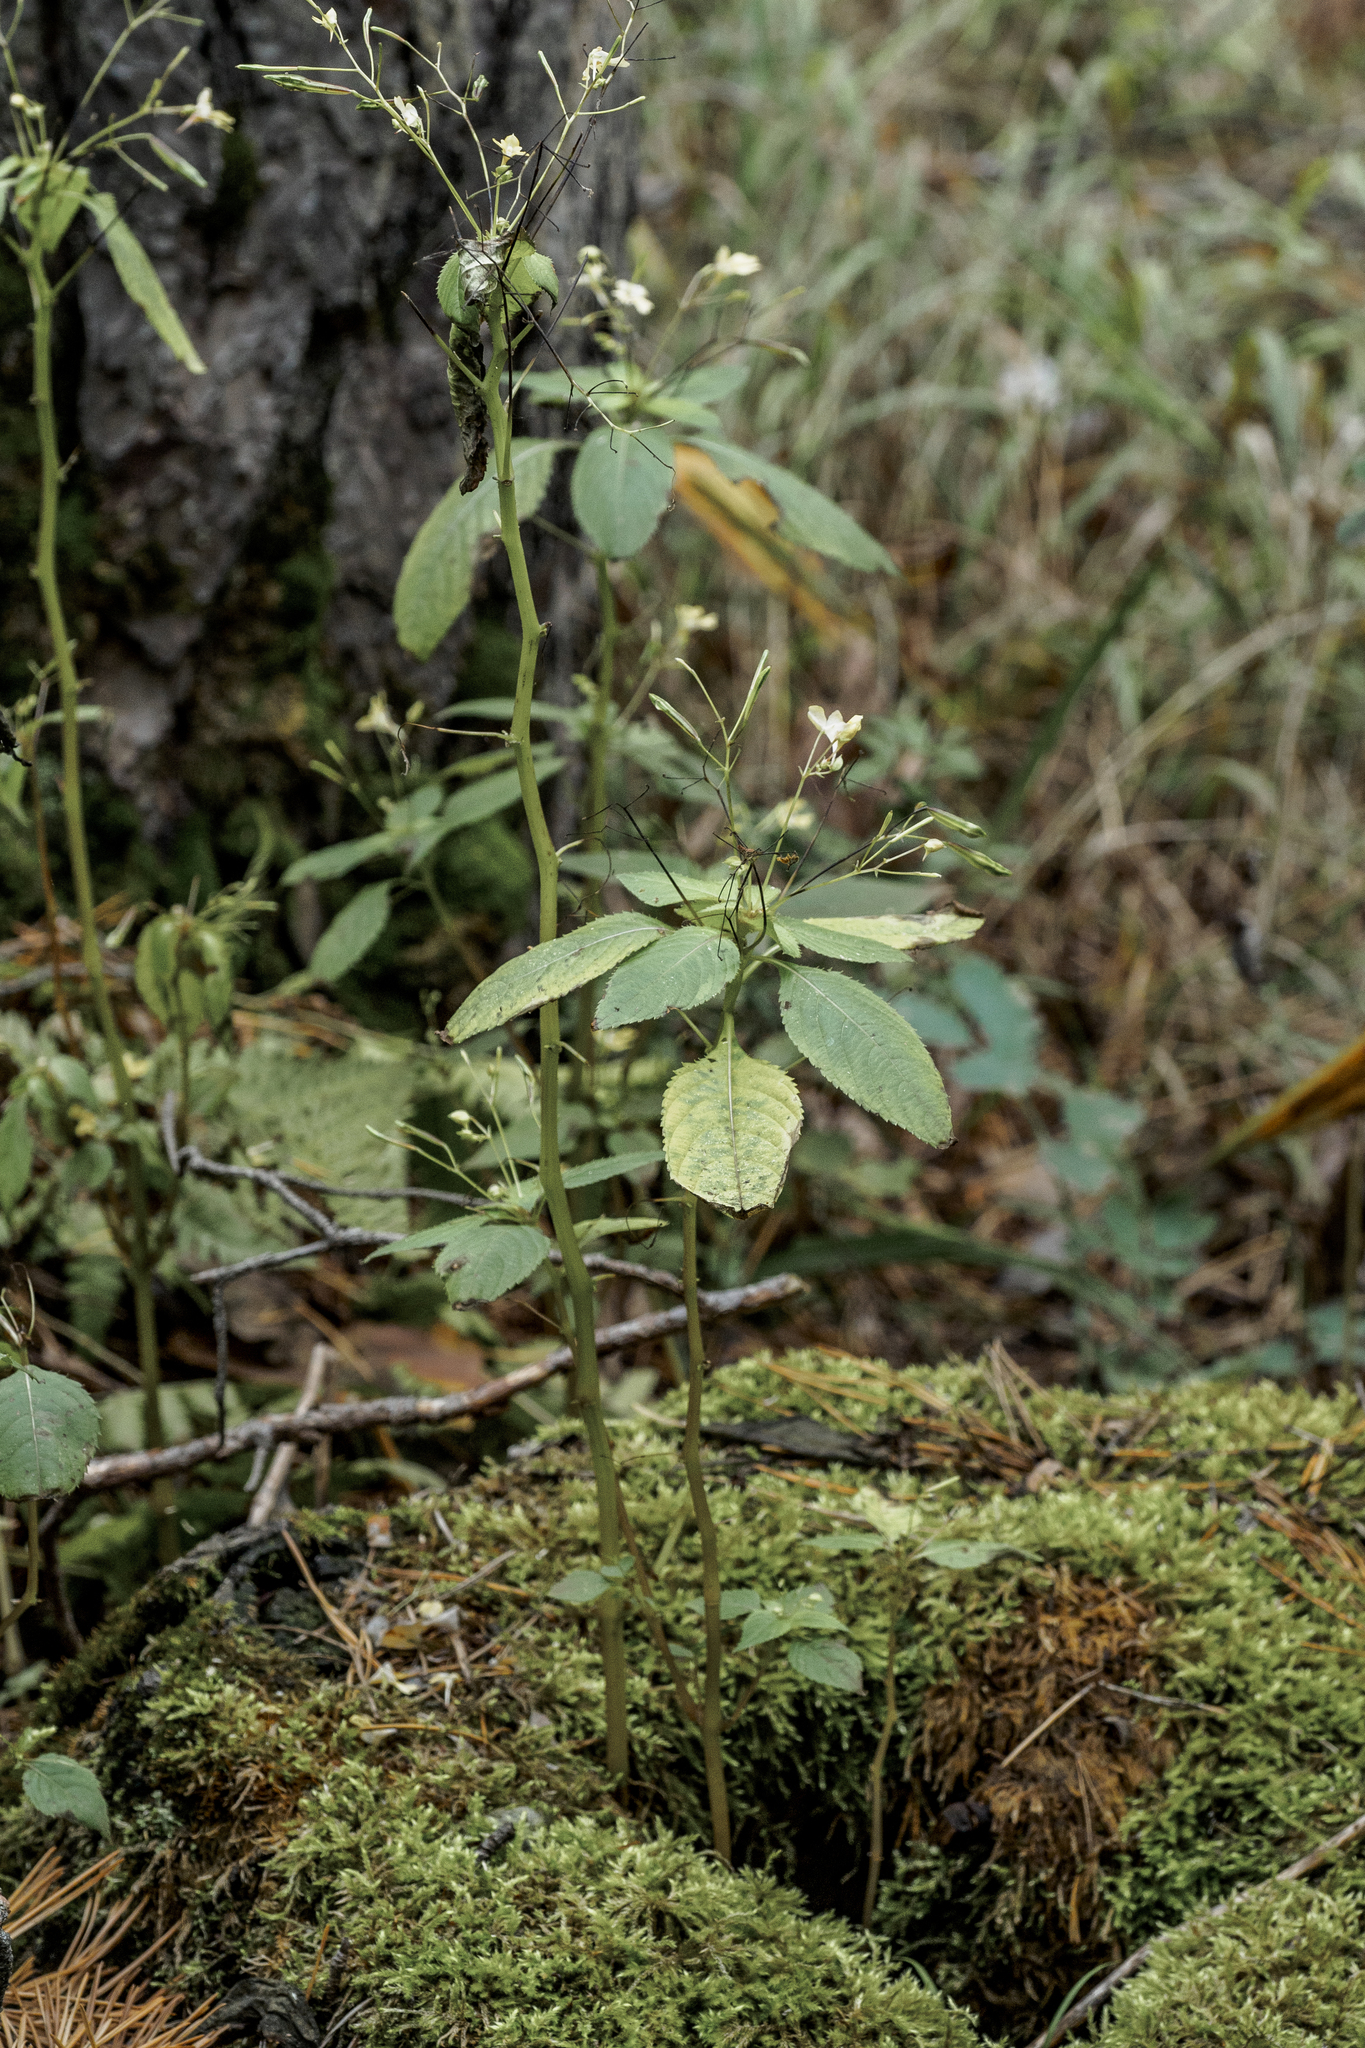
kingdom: Plantae
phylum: Tracheophyta
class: Magnoliopsida
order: Ericales
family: Balsaminaceae
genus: Impatiens
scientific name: Impatiens parviflora
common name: Small balsam
